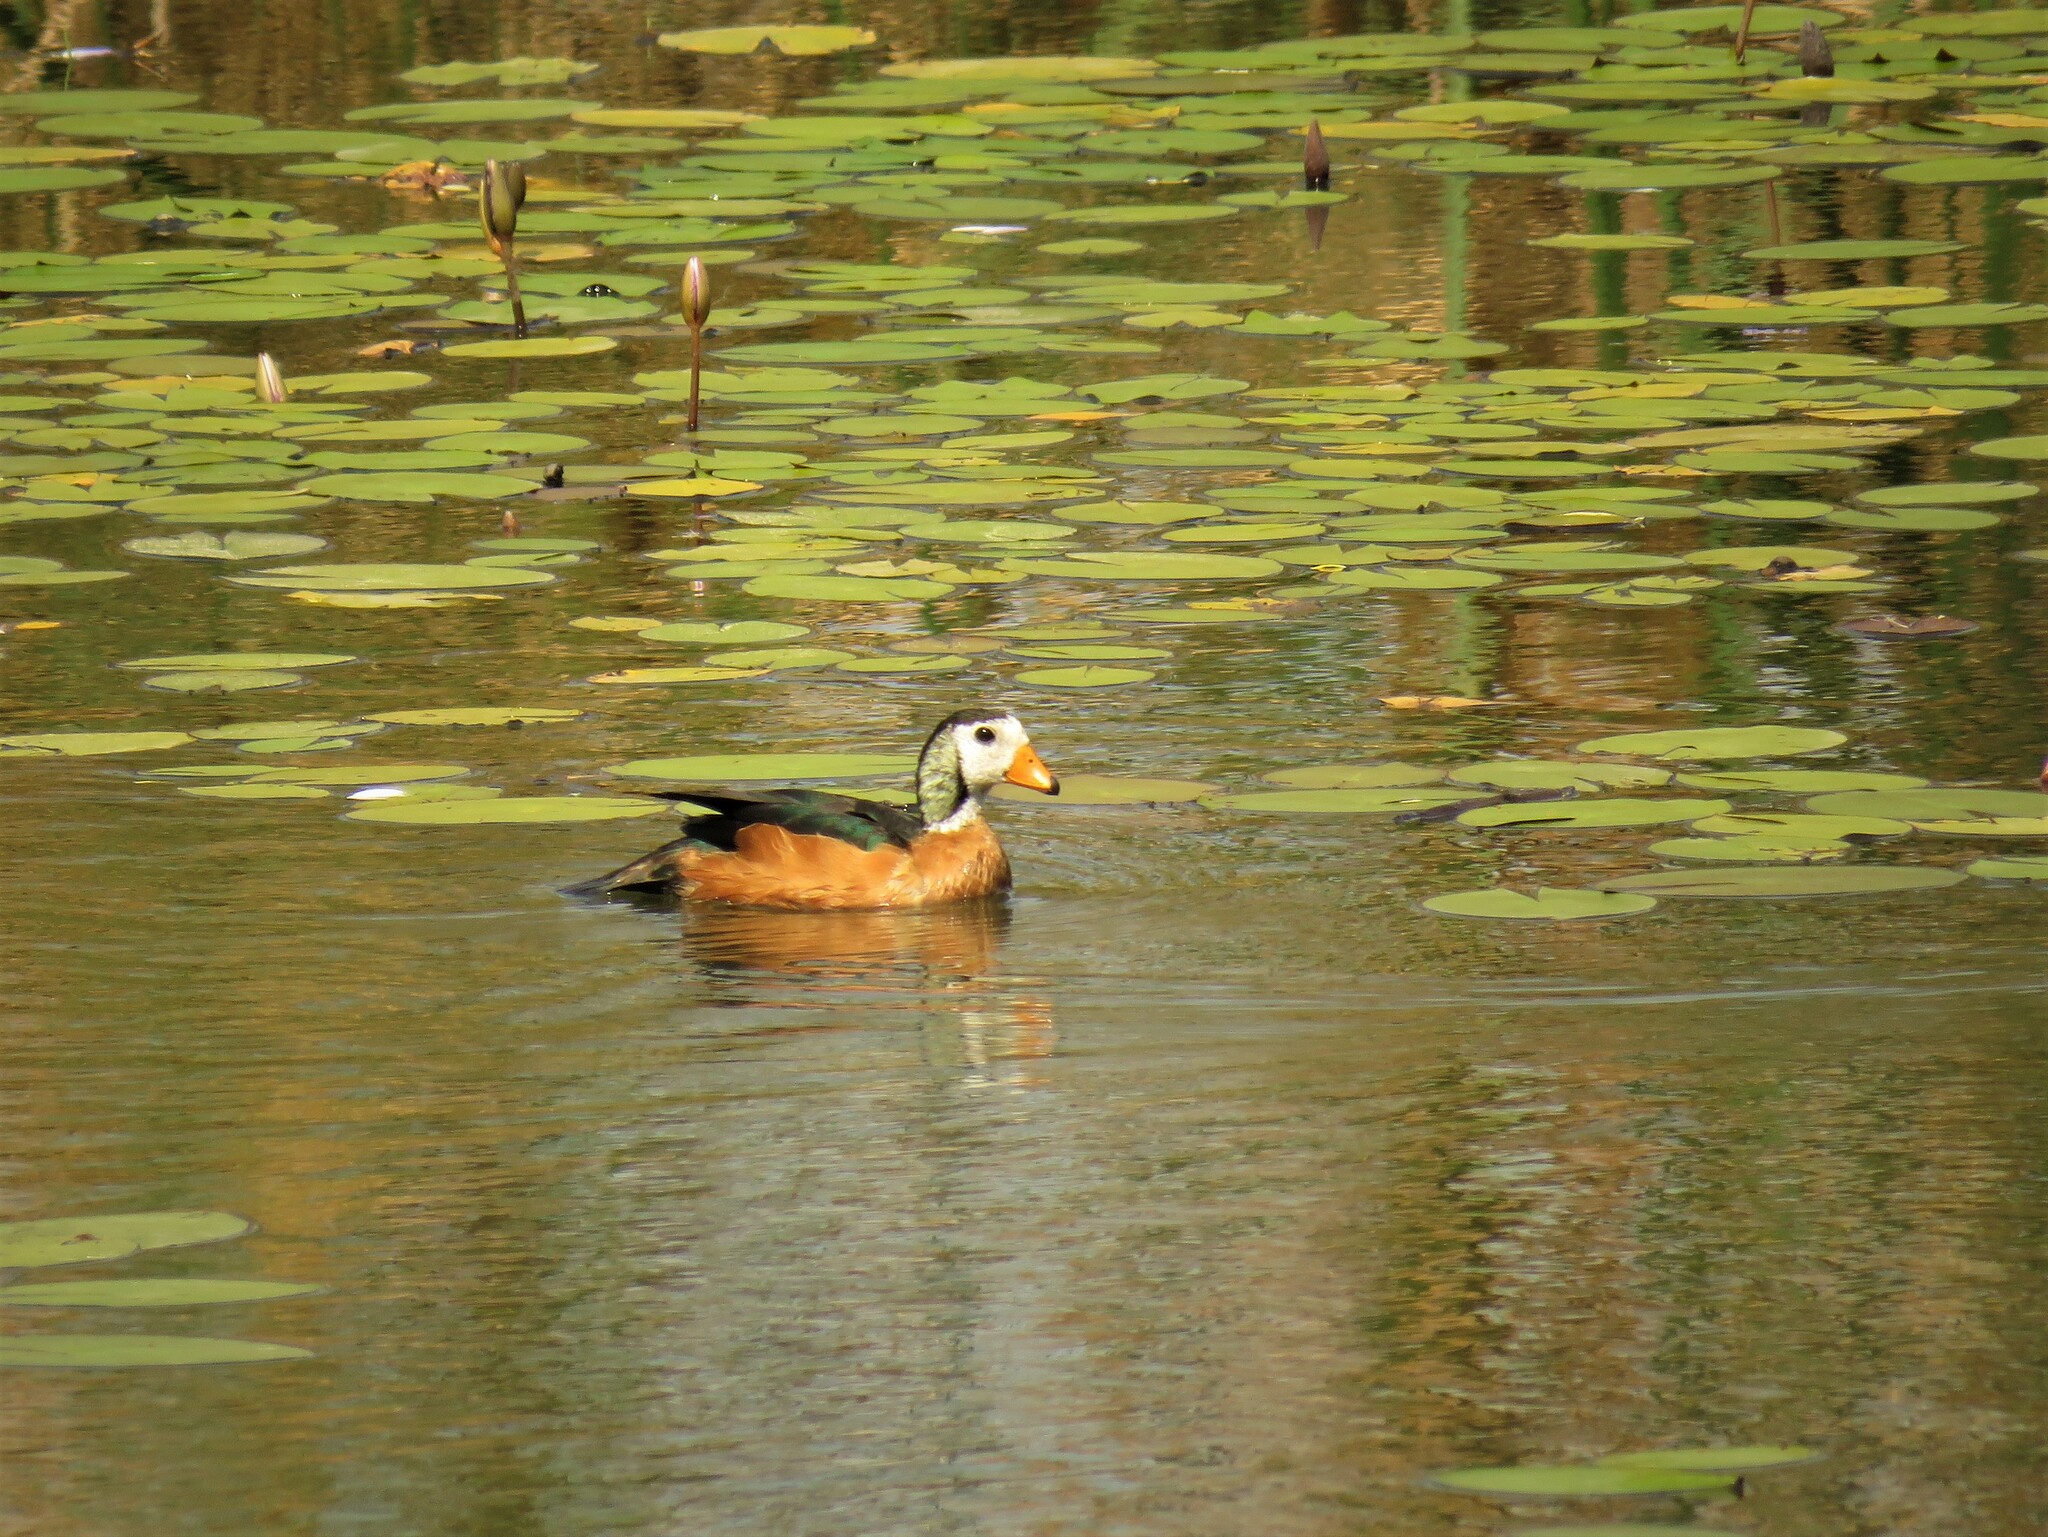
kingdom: Animalia
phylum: Chordata
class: Aves
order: Anseriformes
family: Anatidae
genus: Nettapus
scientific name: Nettapus auritus
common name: African pygmy-goose
